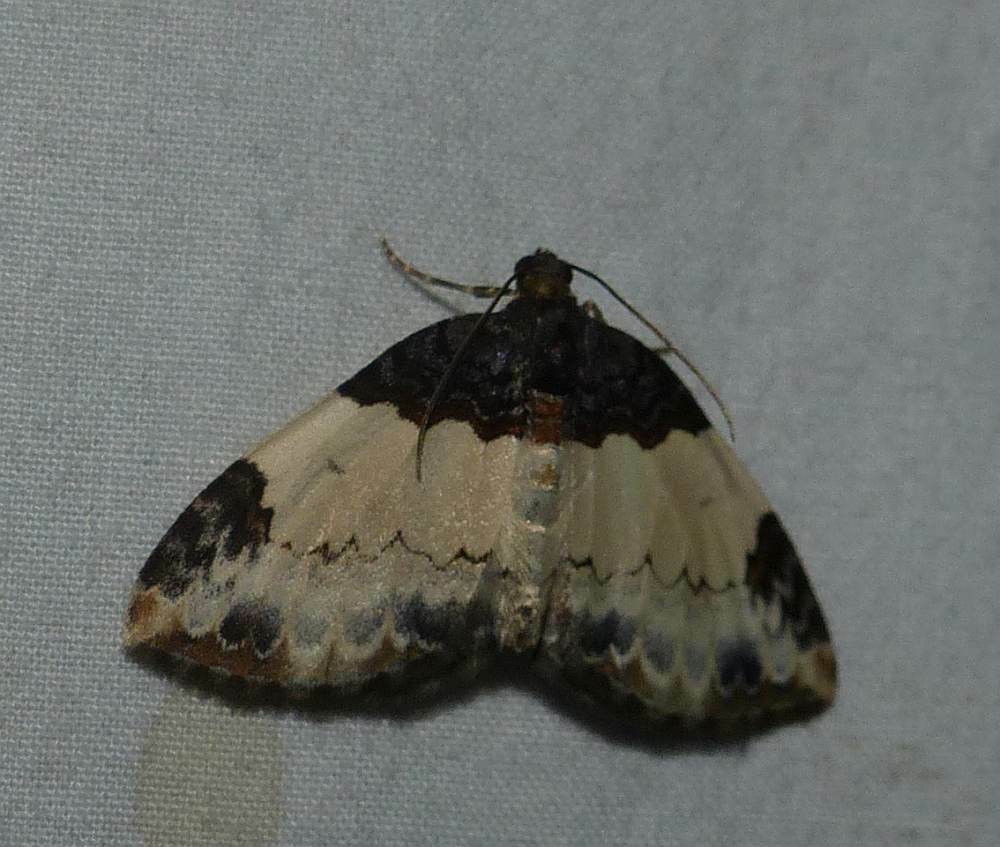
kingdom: Animalia
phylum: Arthropoda
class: Insecta
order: Lepidoptera
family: Geometridae
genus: Mesoleuca
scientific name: Mesoleuca ruficillata
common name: White-ribboned carpet moth
